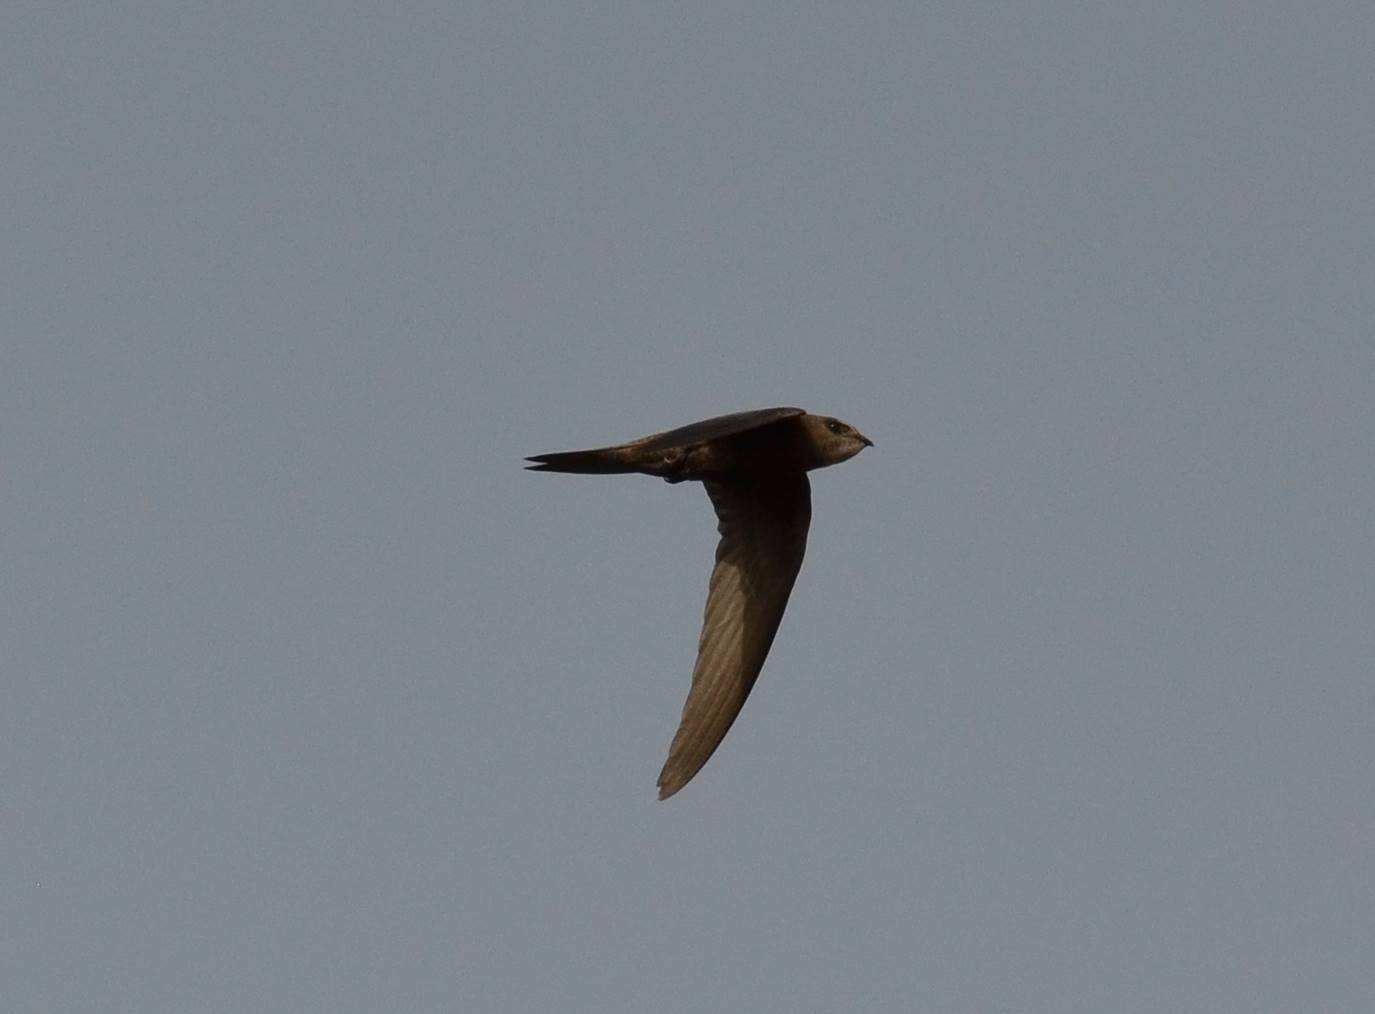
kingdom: Animalia
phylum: Chordata
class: Aves
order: Apodiformes
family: Apodidae
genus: Apus
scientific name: Apus pallidus
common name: Pallid swift
